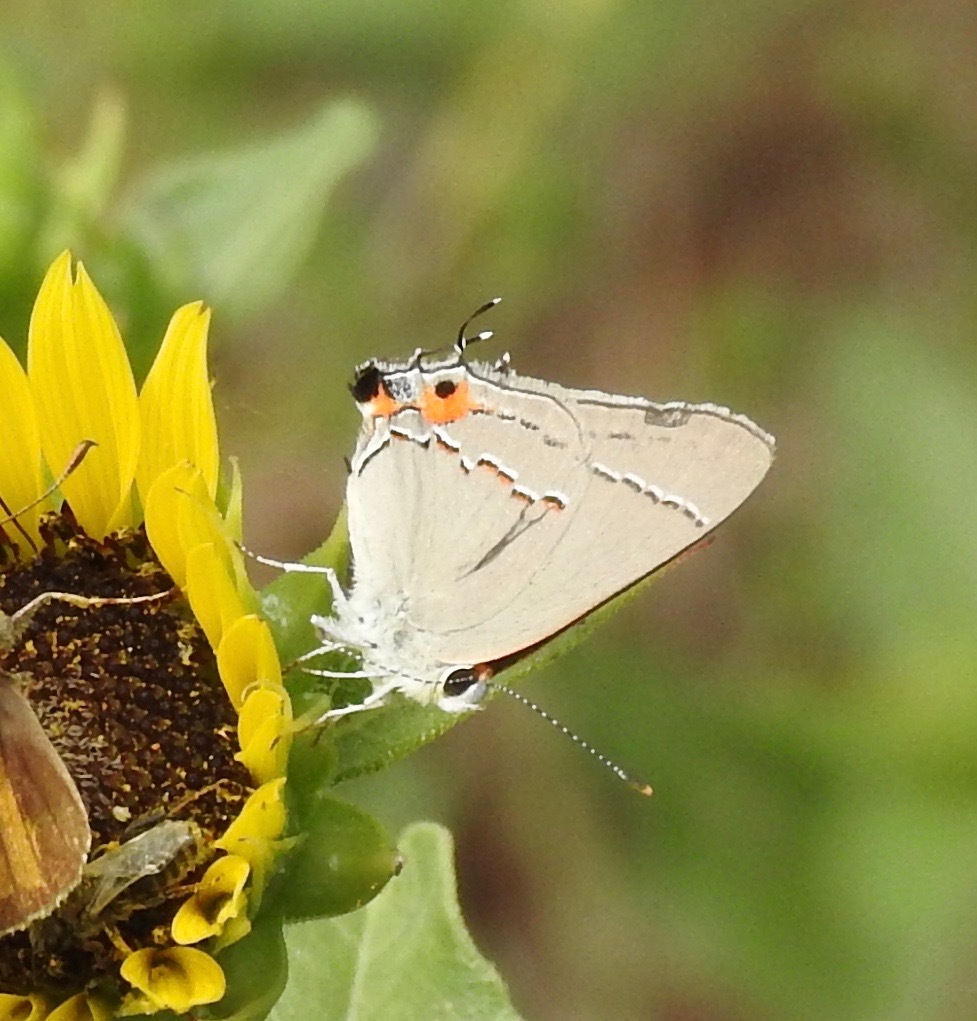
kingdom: Animalia
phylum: Arthropoda
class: Insecta
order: Lepidoptera
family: Lycaenidae
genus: Strymon
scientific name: Strymon melinus
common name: Gray hairstreak
